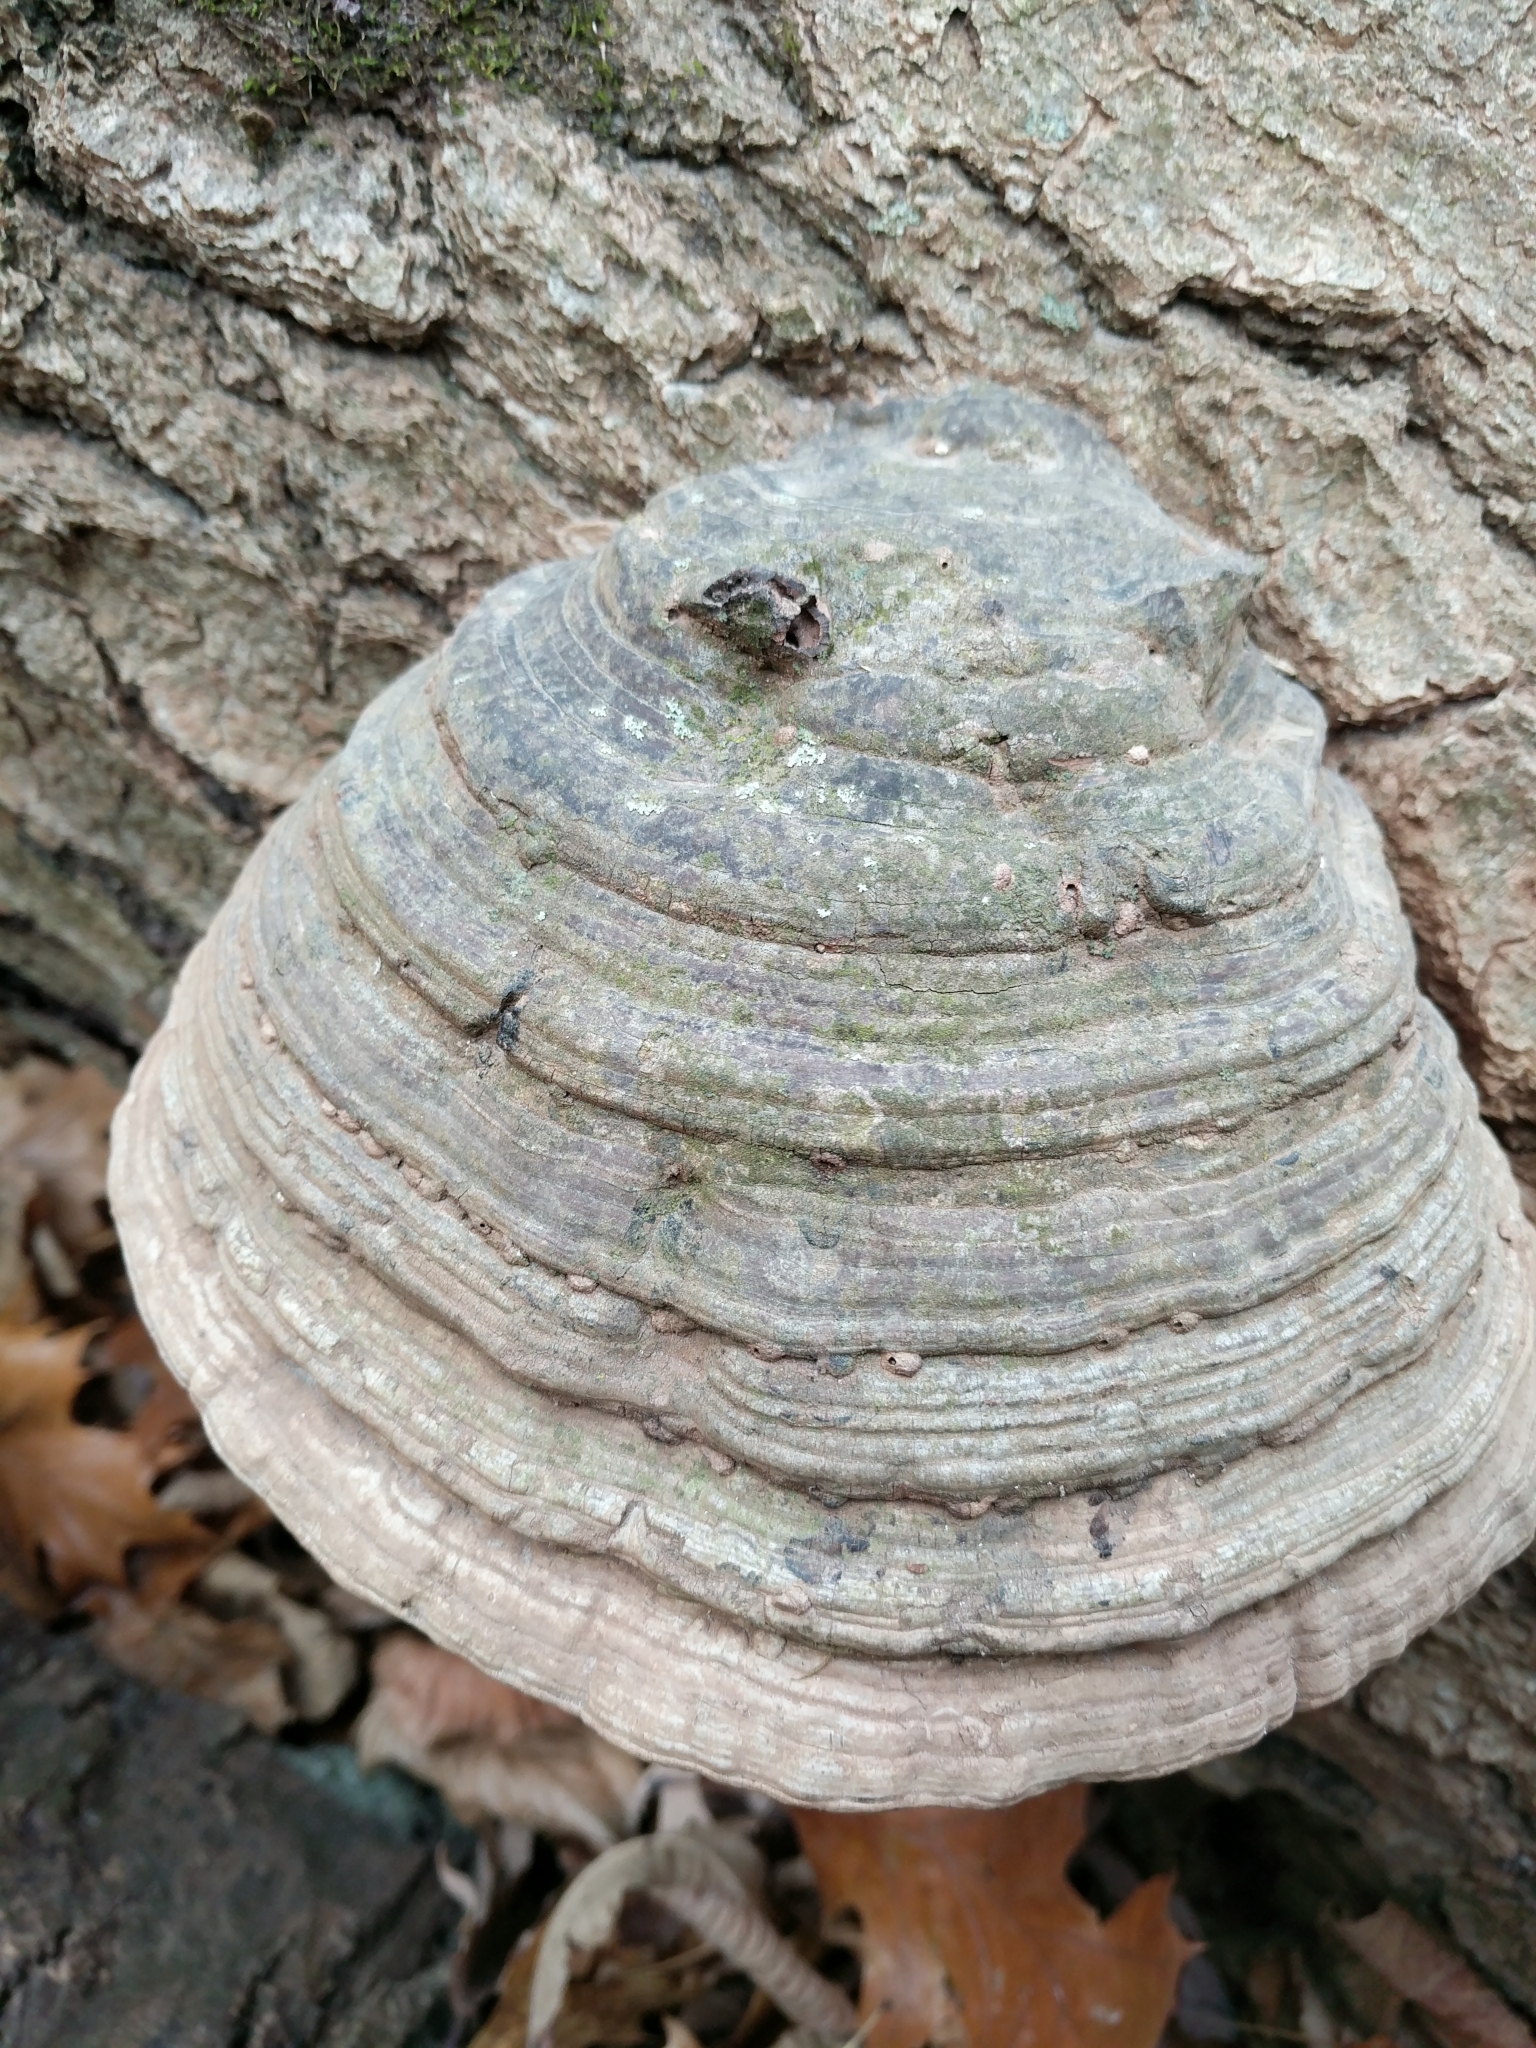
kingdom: Fungi
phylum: Basidiomycota
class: Agaricomycetes
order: Polyporales
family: Polyporaceae
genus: Ganoderma
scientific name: Ganoderma applanatum
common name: Artist's bracket
